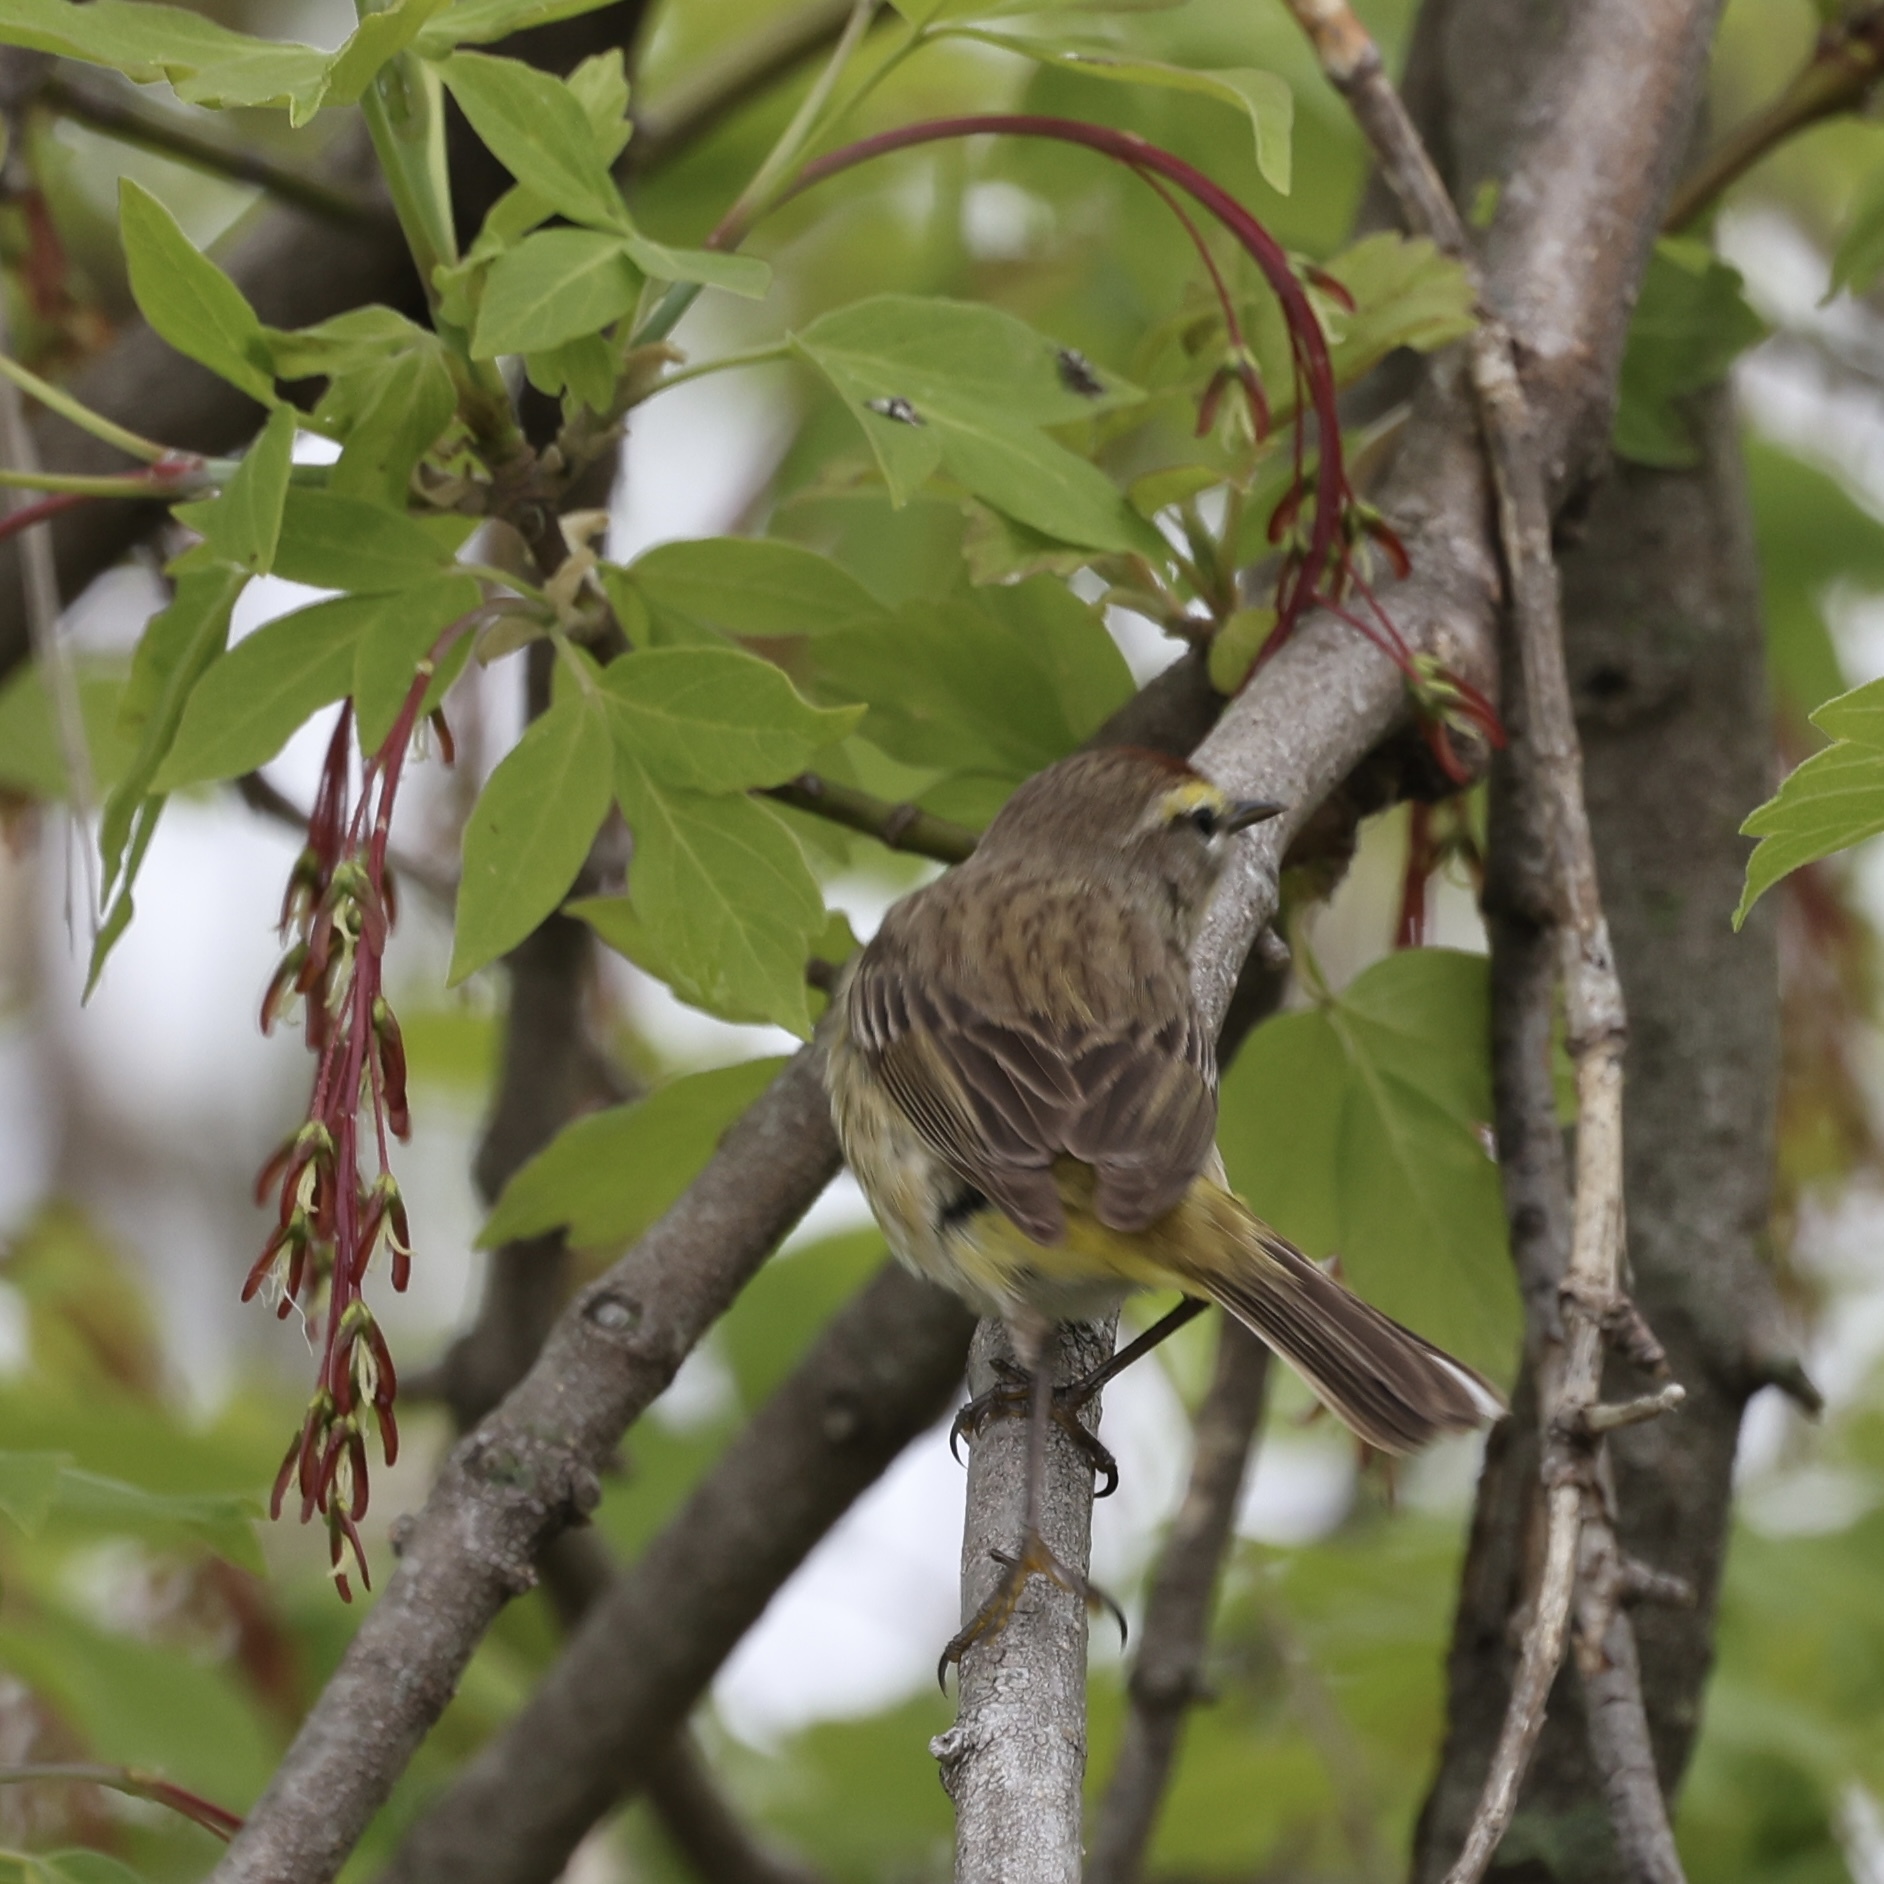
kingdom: Animalia
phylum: Chordata
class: Aves
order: Passeriformes
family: Parulidae
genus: Setophaga
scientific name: Setophaga palmarum
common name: Palm warbler
